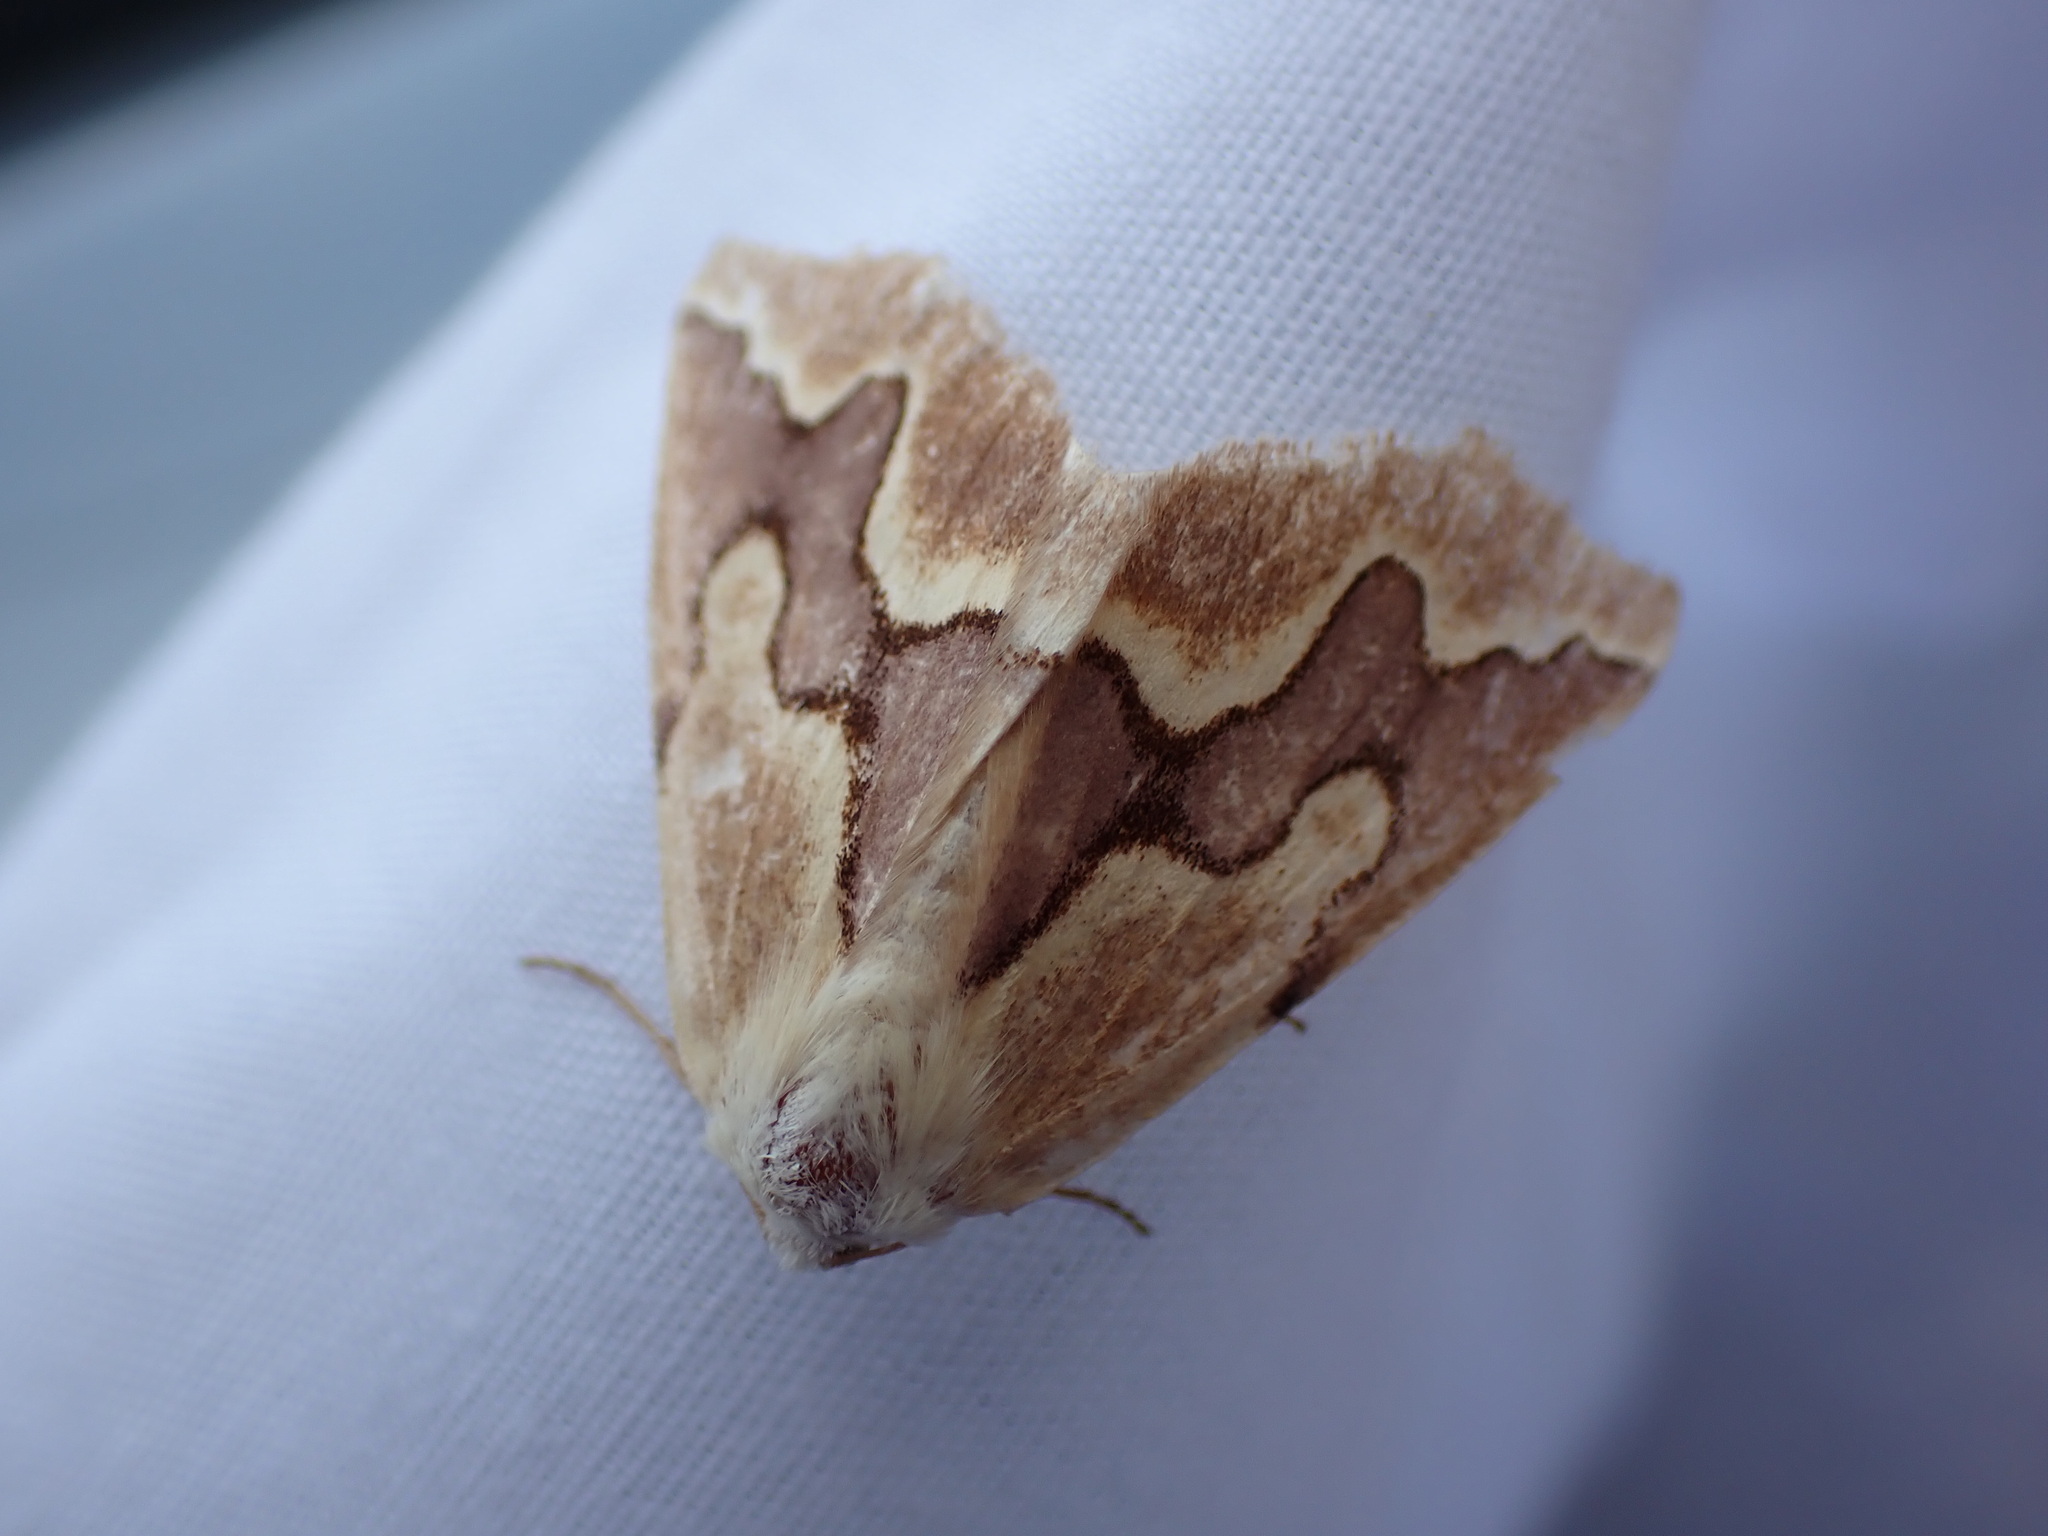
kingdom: Animalia
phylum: Arthropoda
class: Insecta
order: Lepidoptera
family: Geometridae
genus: Sabulodes
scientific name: Sabulodes edwardsata
